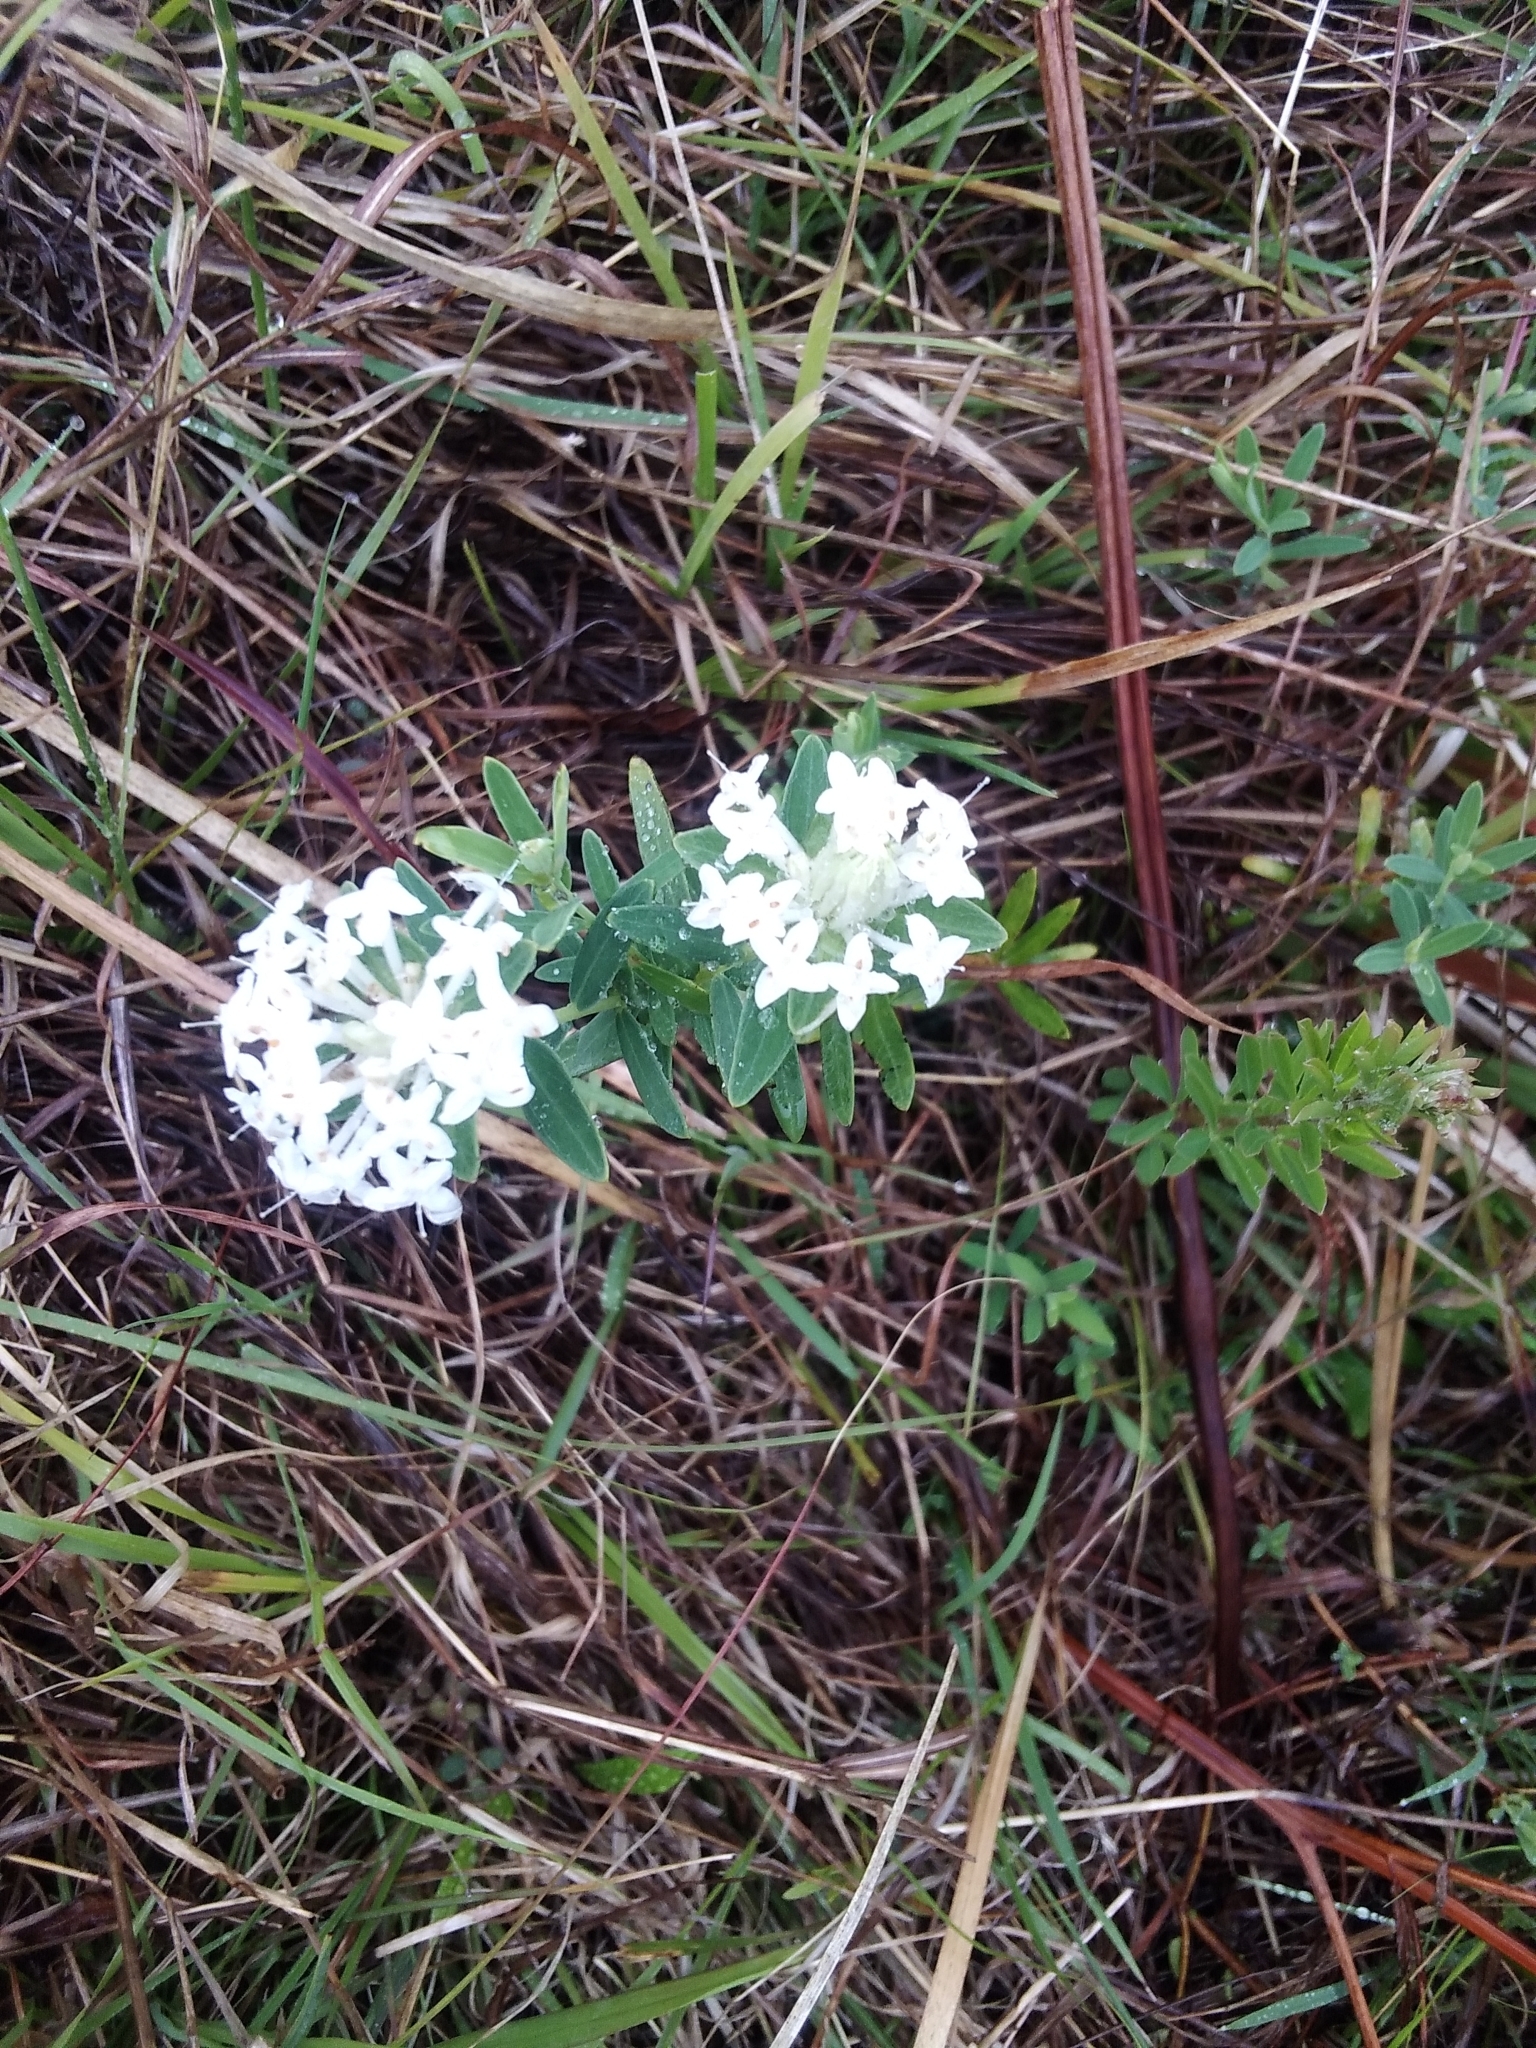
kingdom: Plantae
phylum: Tracheophyta
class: Magnoliopsida
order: Malvales
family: Thymelaeaceae
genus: Pimelea
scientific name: Pimelea linifolia
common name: Queen-of-the-bush
